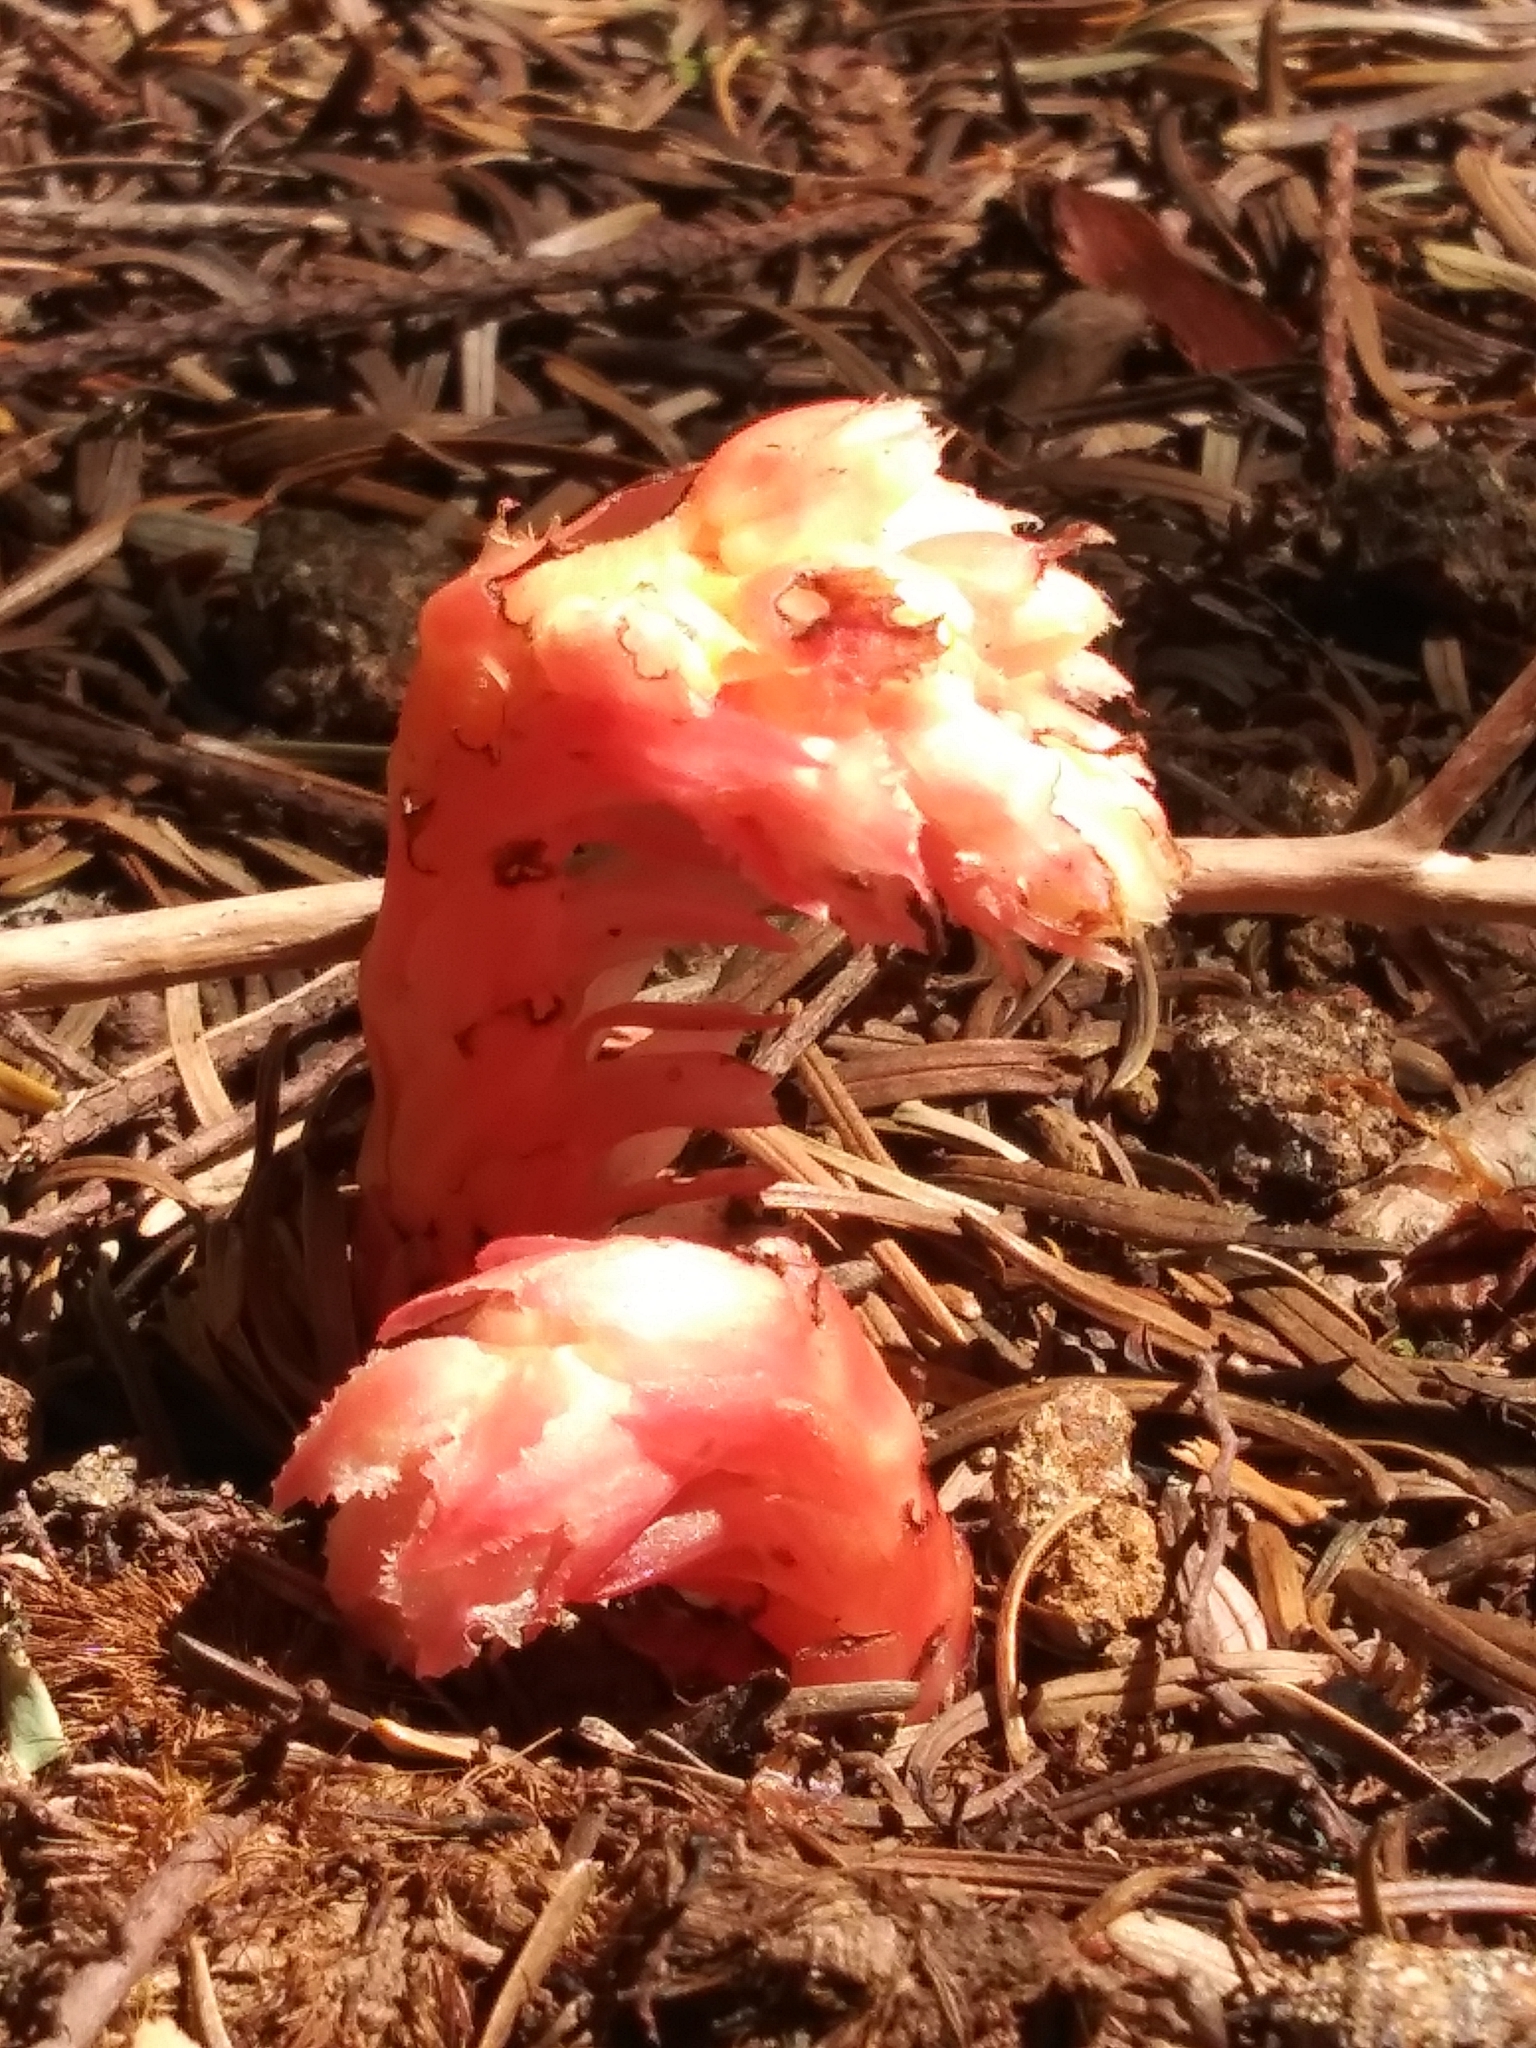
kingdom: Plantae
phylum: Tracheophyta
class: Magnoliopsida
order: Ericales
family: Ericaceae
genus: Hypopitys
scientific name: Hypopitys monotropa
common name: Yellow bird's-nest
